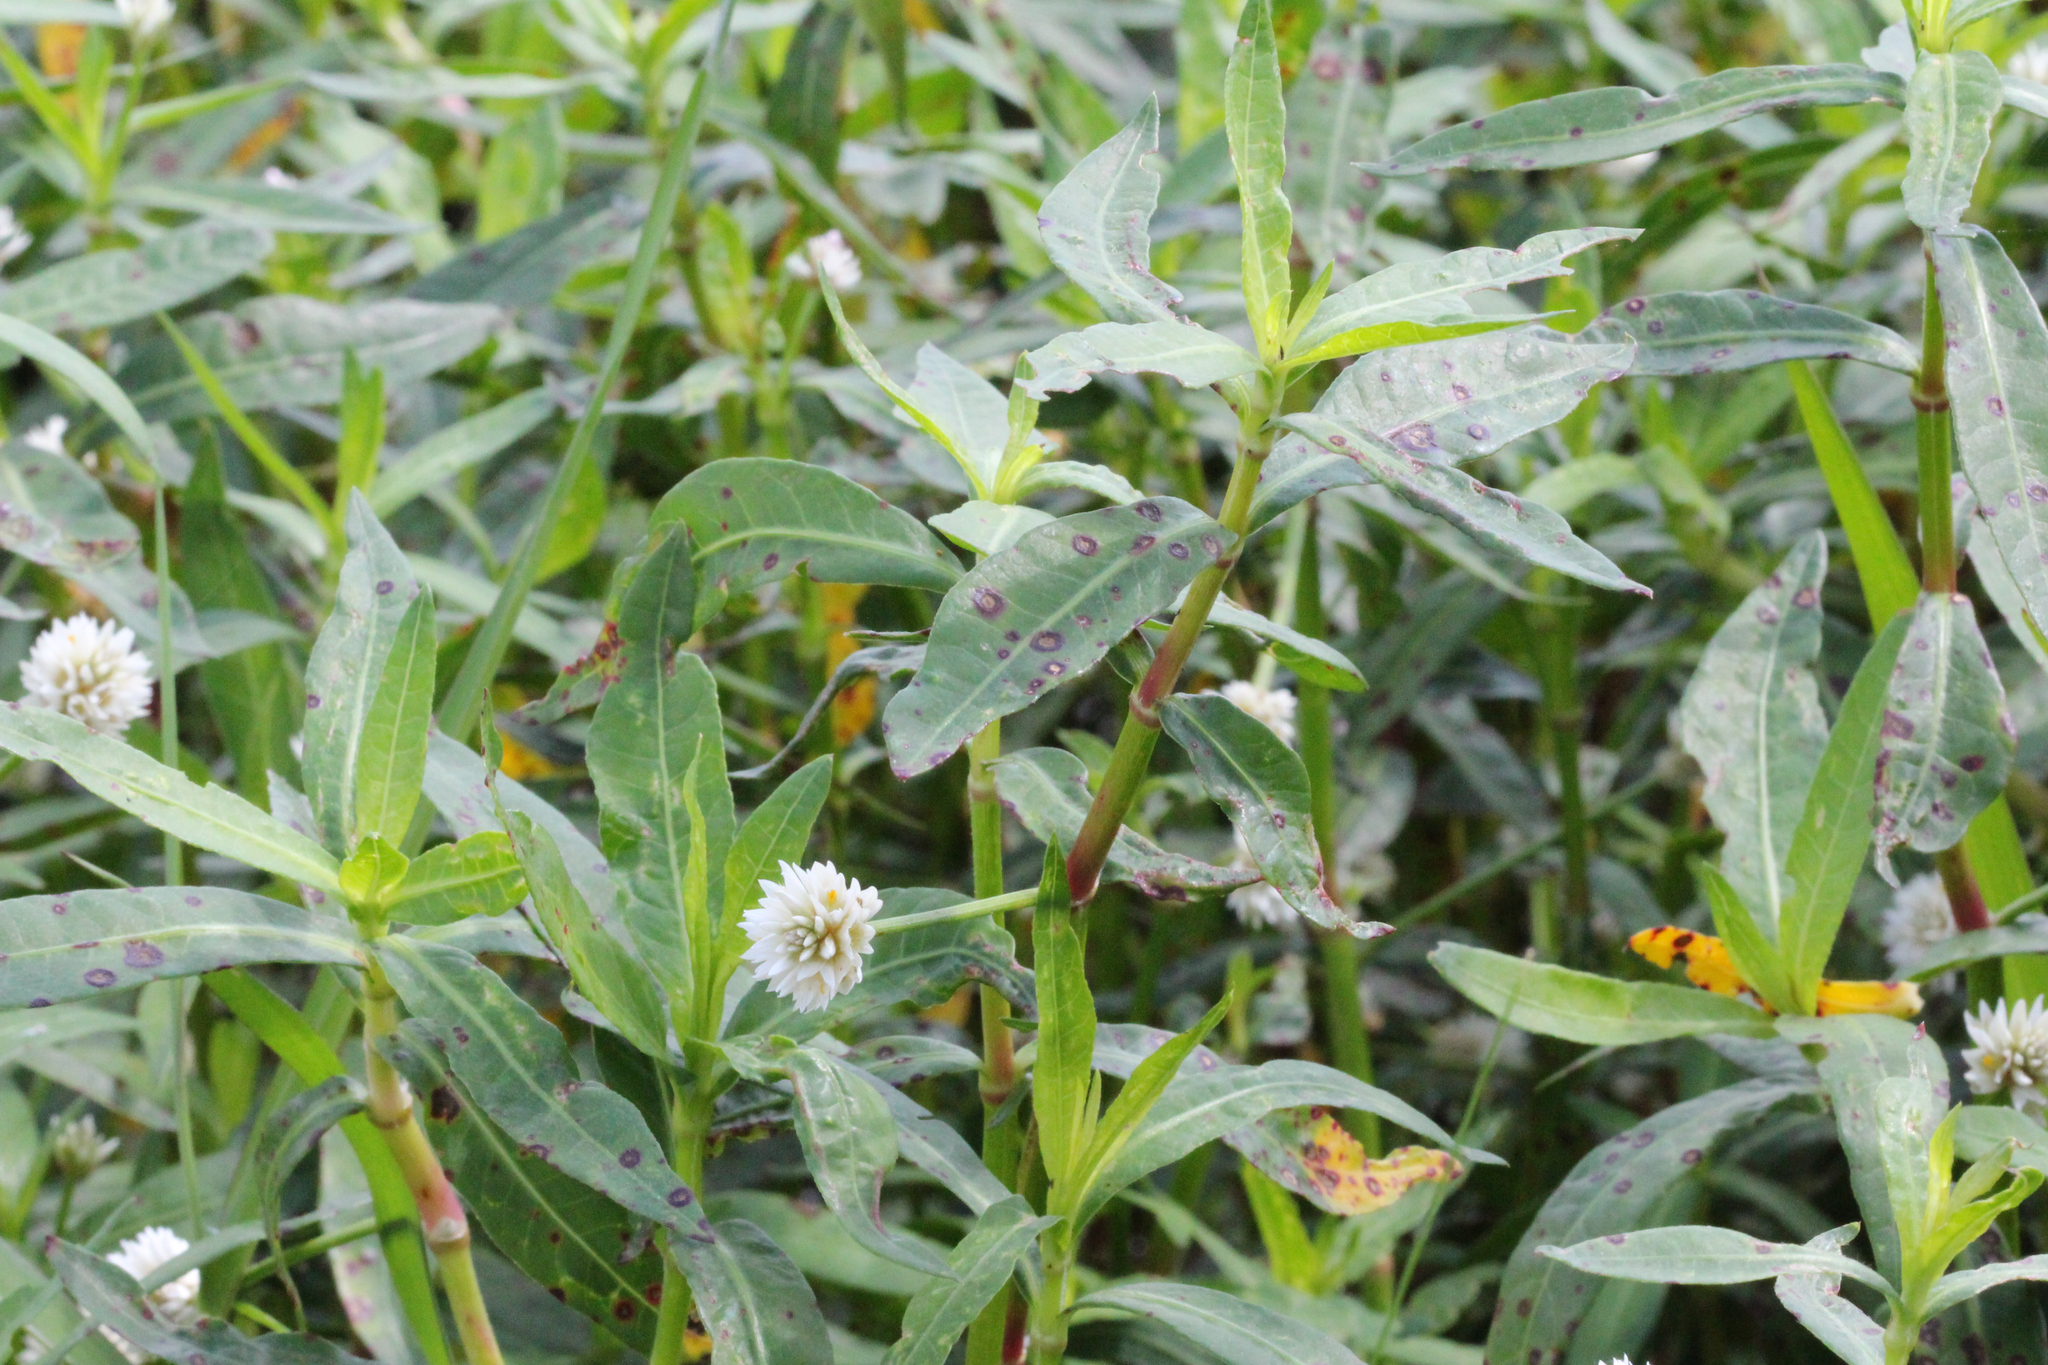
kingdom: Plantae
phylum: Tracheophyta
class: Magnoliopsida
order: Caryophyllales
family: Amaranthaceae
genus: Alternanthera
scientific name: Alternanthera philoxeroides
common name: Alligatorweed
